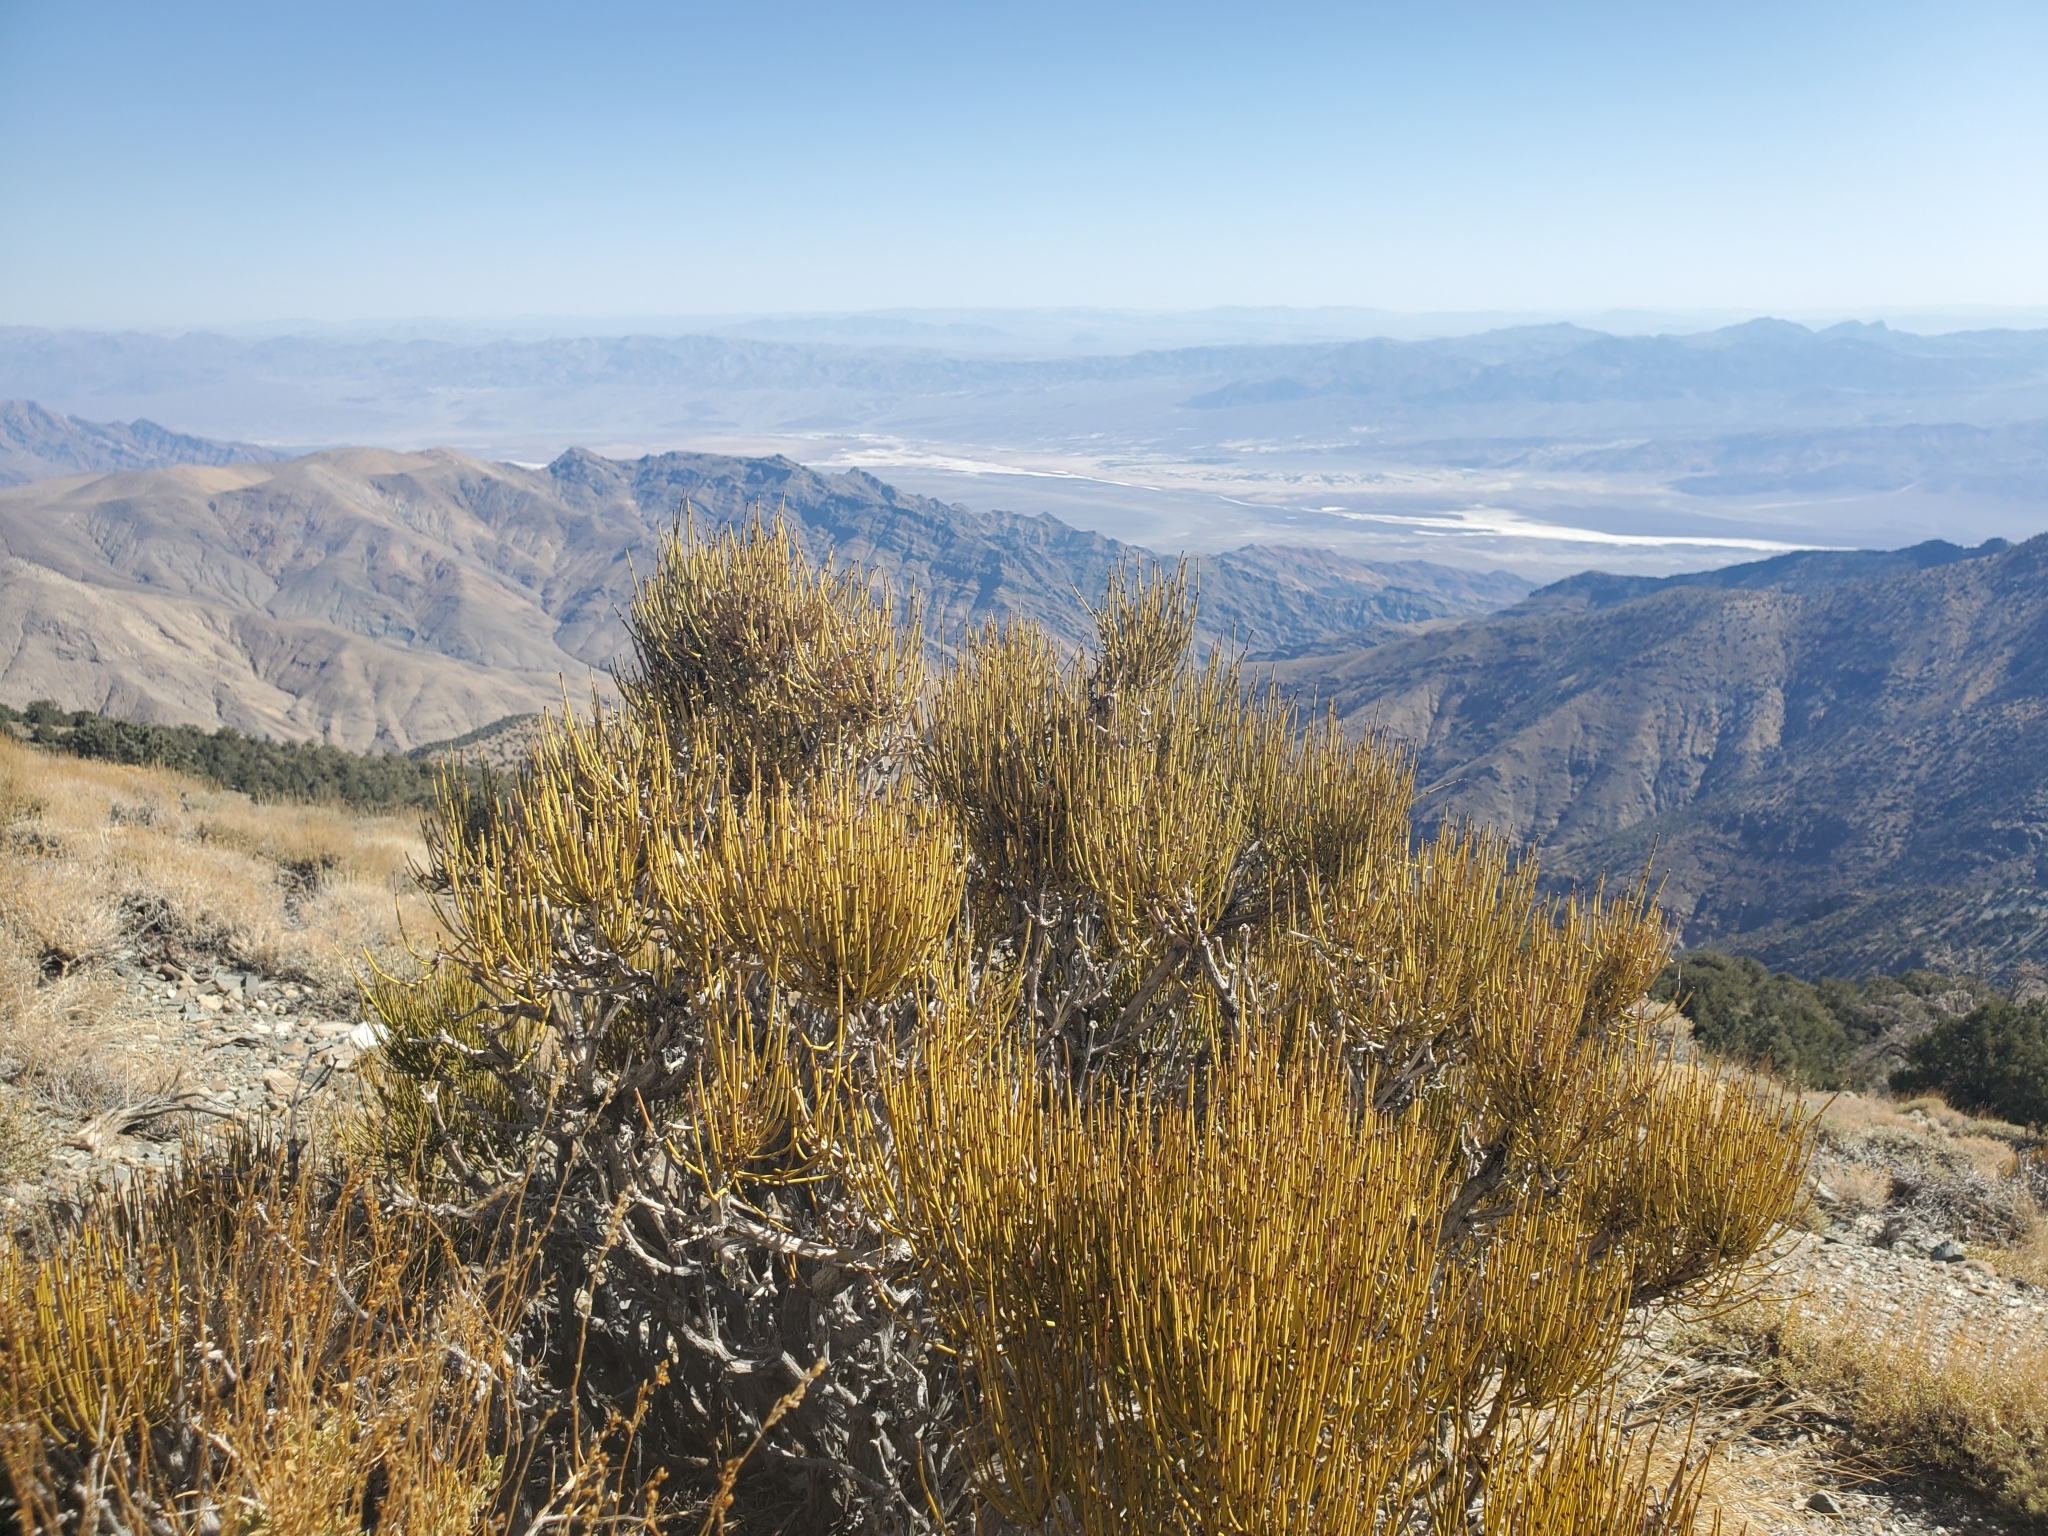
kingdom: Plantae
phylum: Tracheophyta
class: Gnetopsida
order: Ephedrales
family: Ephedraceae
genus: Ephedra
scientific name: Ephedra viridis
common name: Green ephedra
